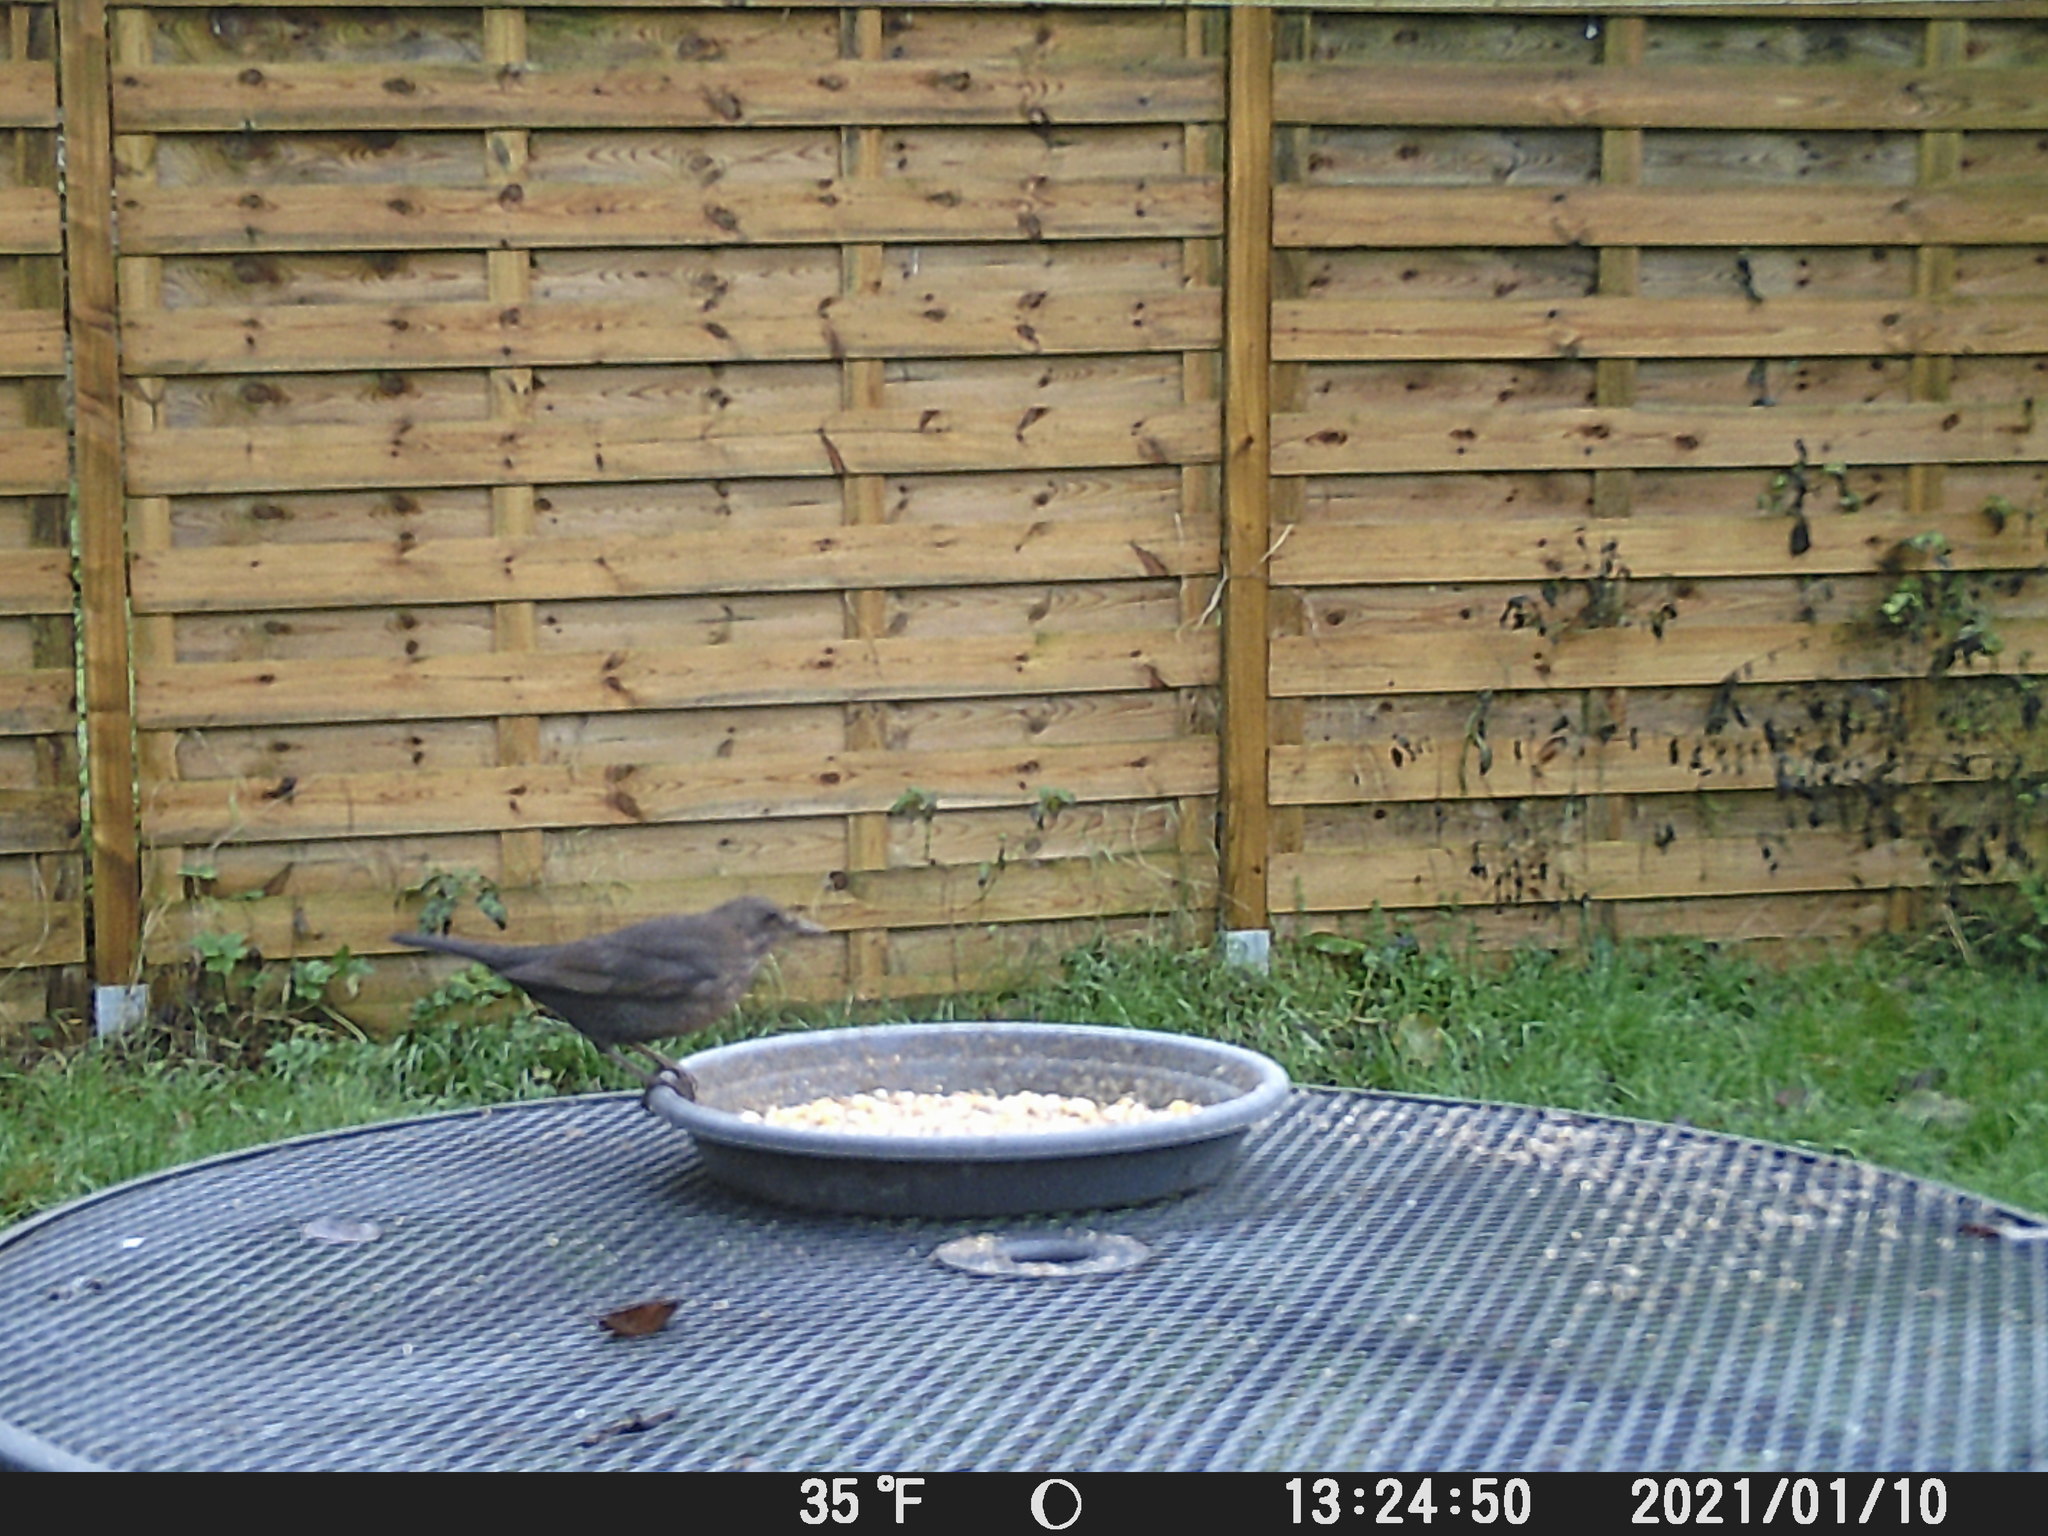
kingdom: Animalia
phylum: Chordata
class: Aves
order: Passeriformes
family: Turdidae
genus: Turdus
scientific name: Turdus merula
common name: Common blackbird
